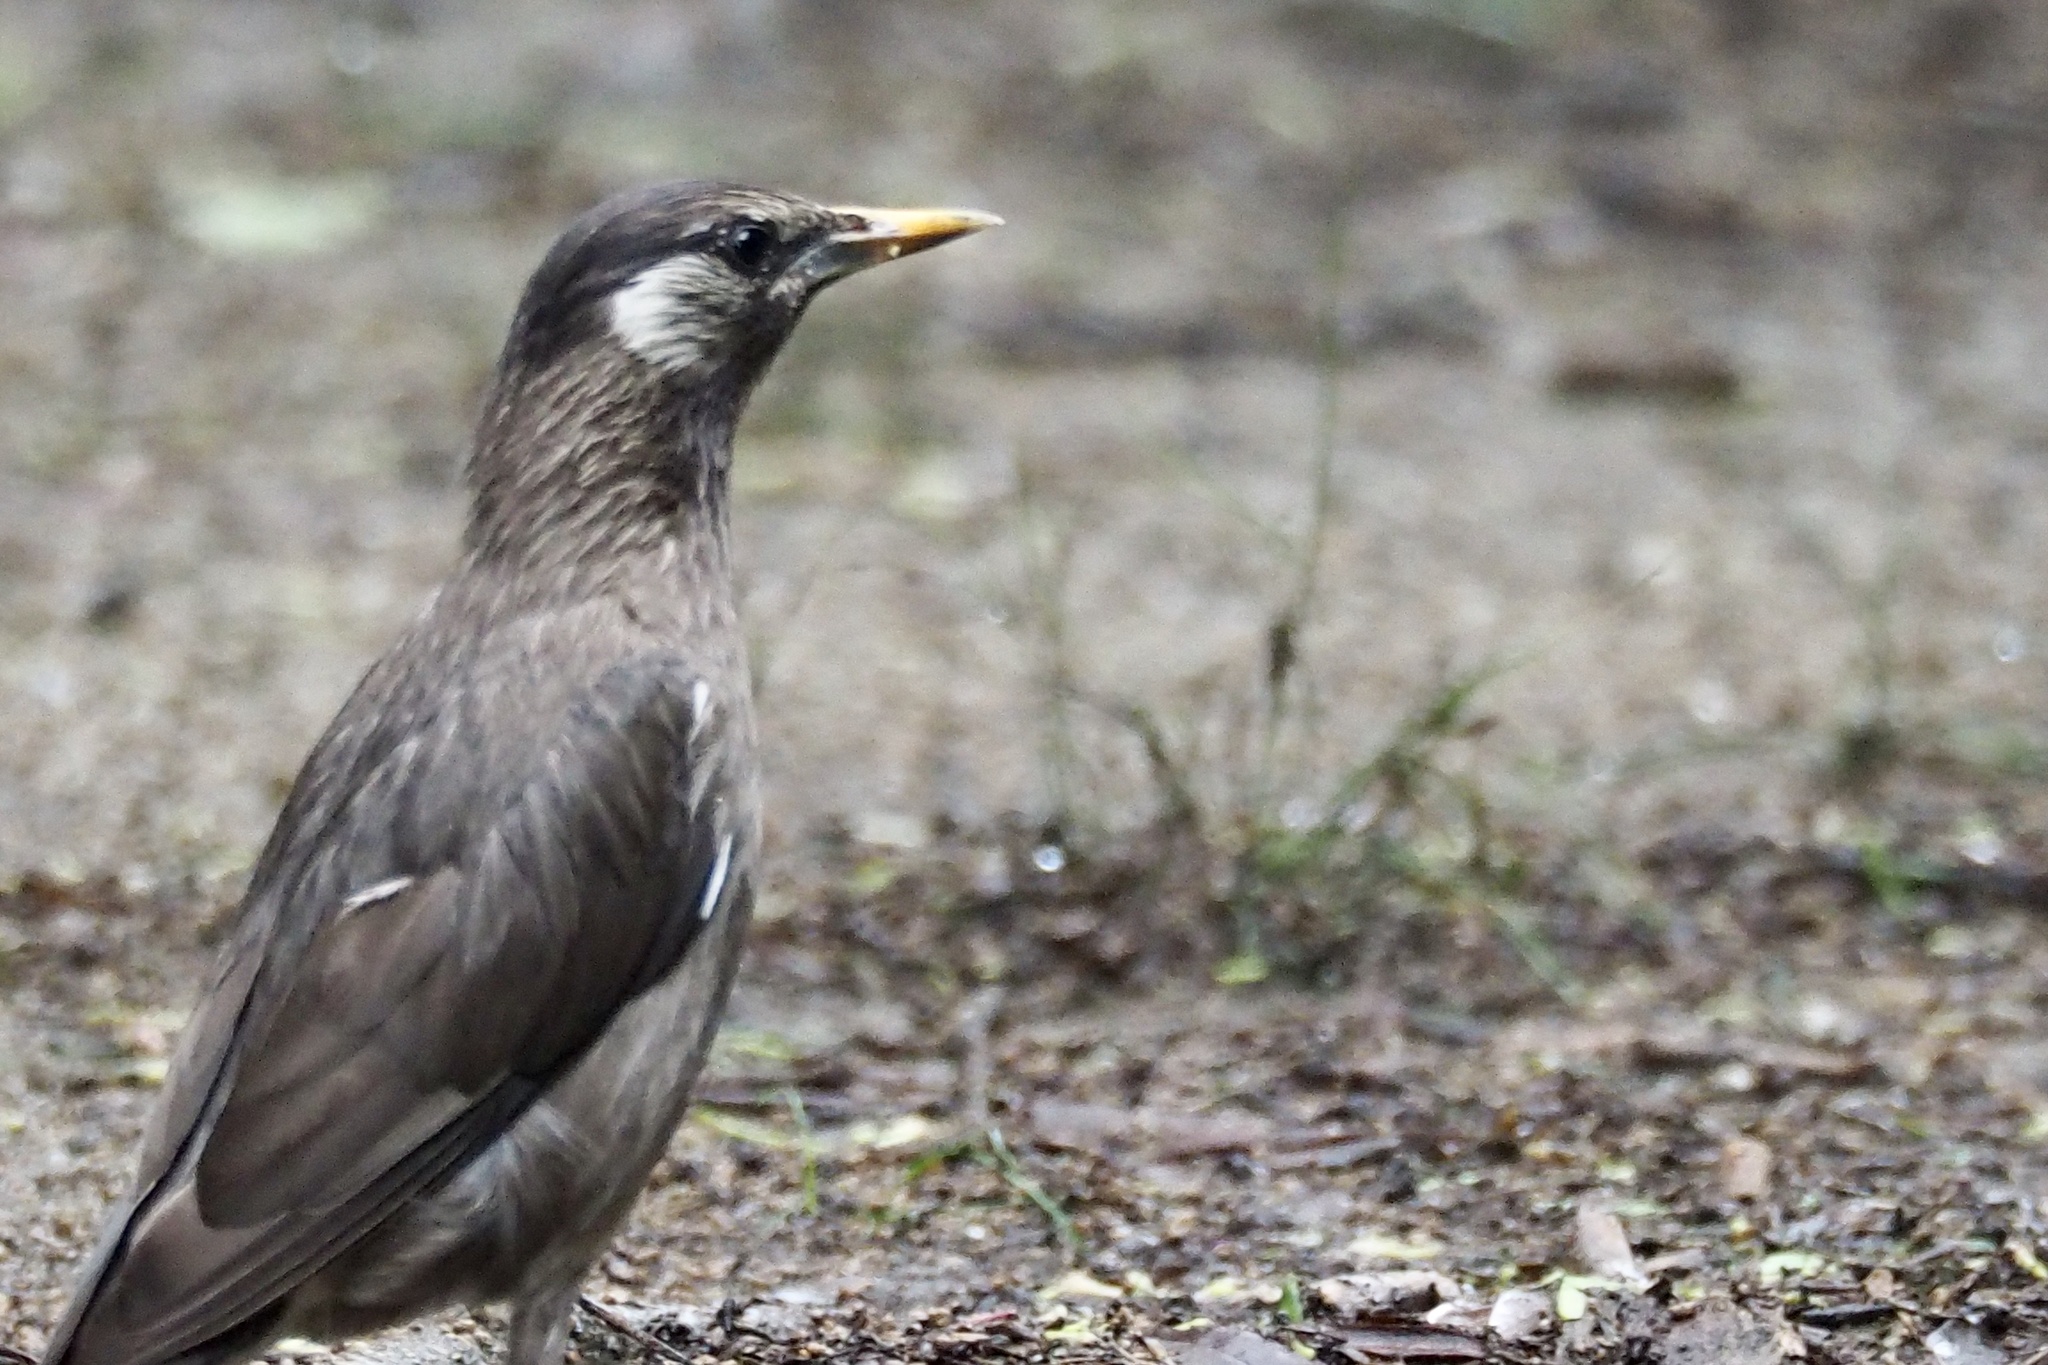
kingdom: Animalia
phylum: Chordata
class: Aves
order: Passeriformes
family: Sturnidae
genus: Spodiopsar
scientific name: Spodiopsar cineraceus
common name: White-cheeked starling
